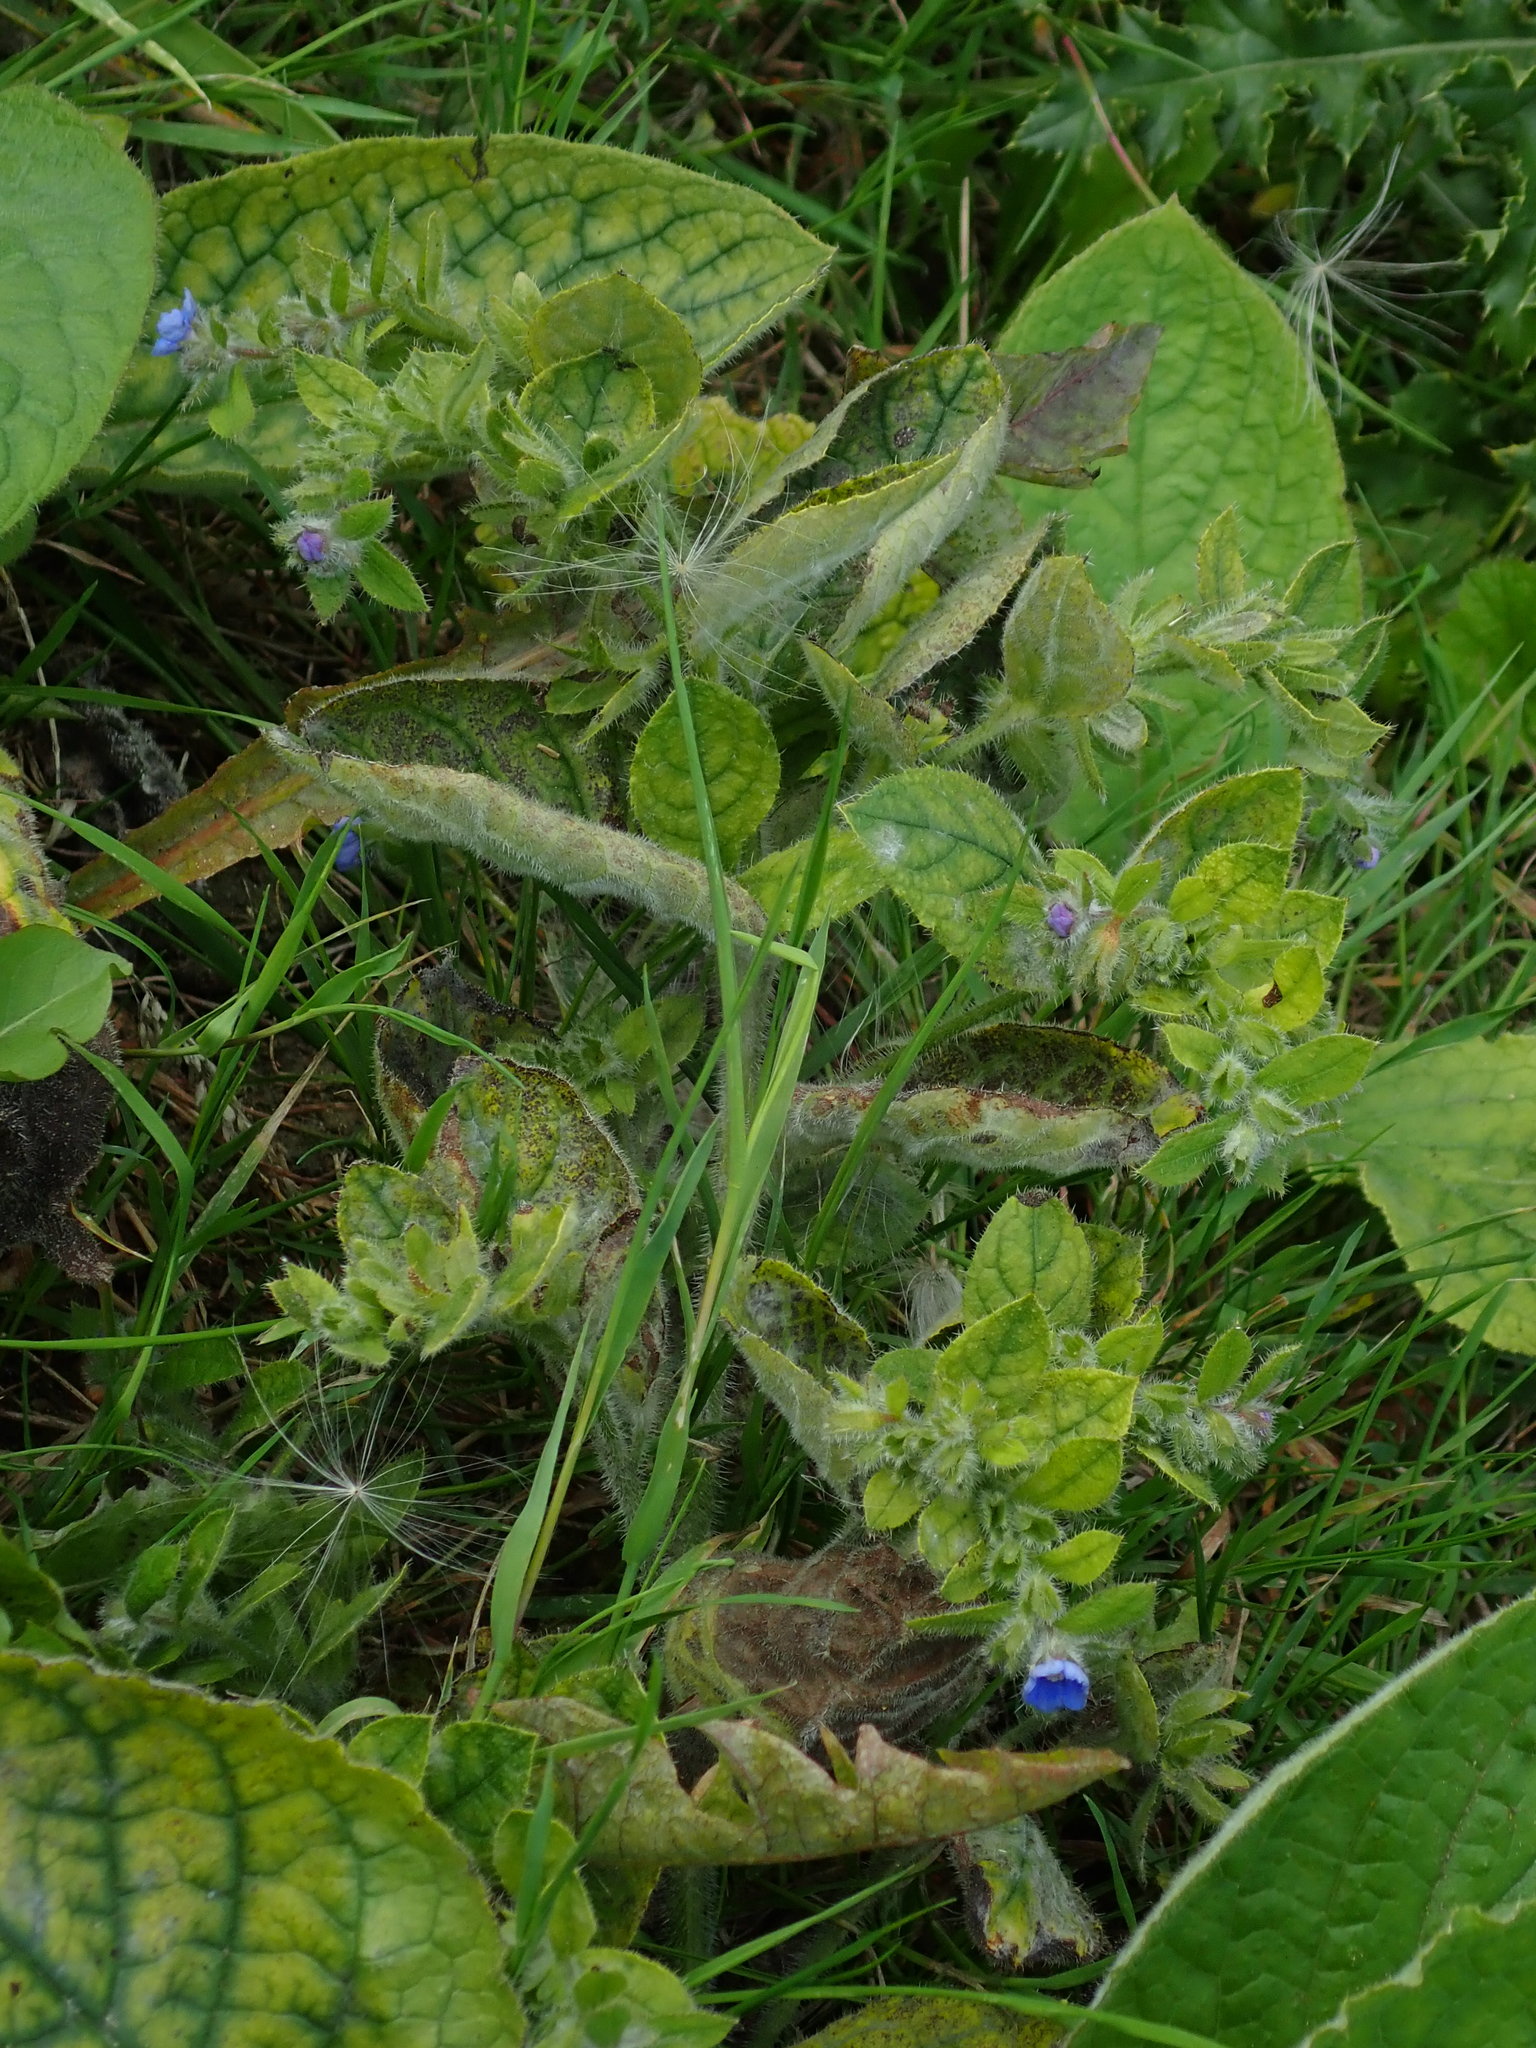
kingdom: Plantae
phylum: Tracheophyta
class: Magnoliopsida
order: Boraginales
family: Boraginaceae
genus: Pentaglottis
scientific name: Pentaglottis sempervirens
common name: Green alkanet
